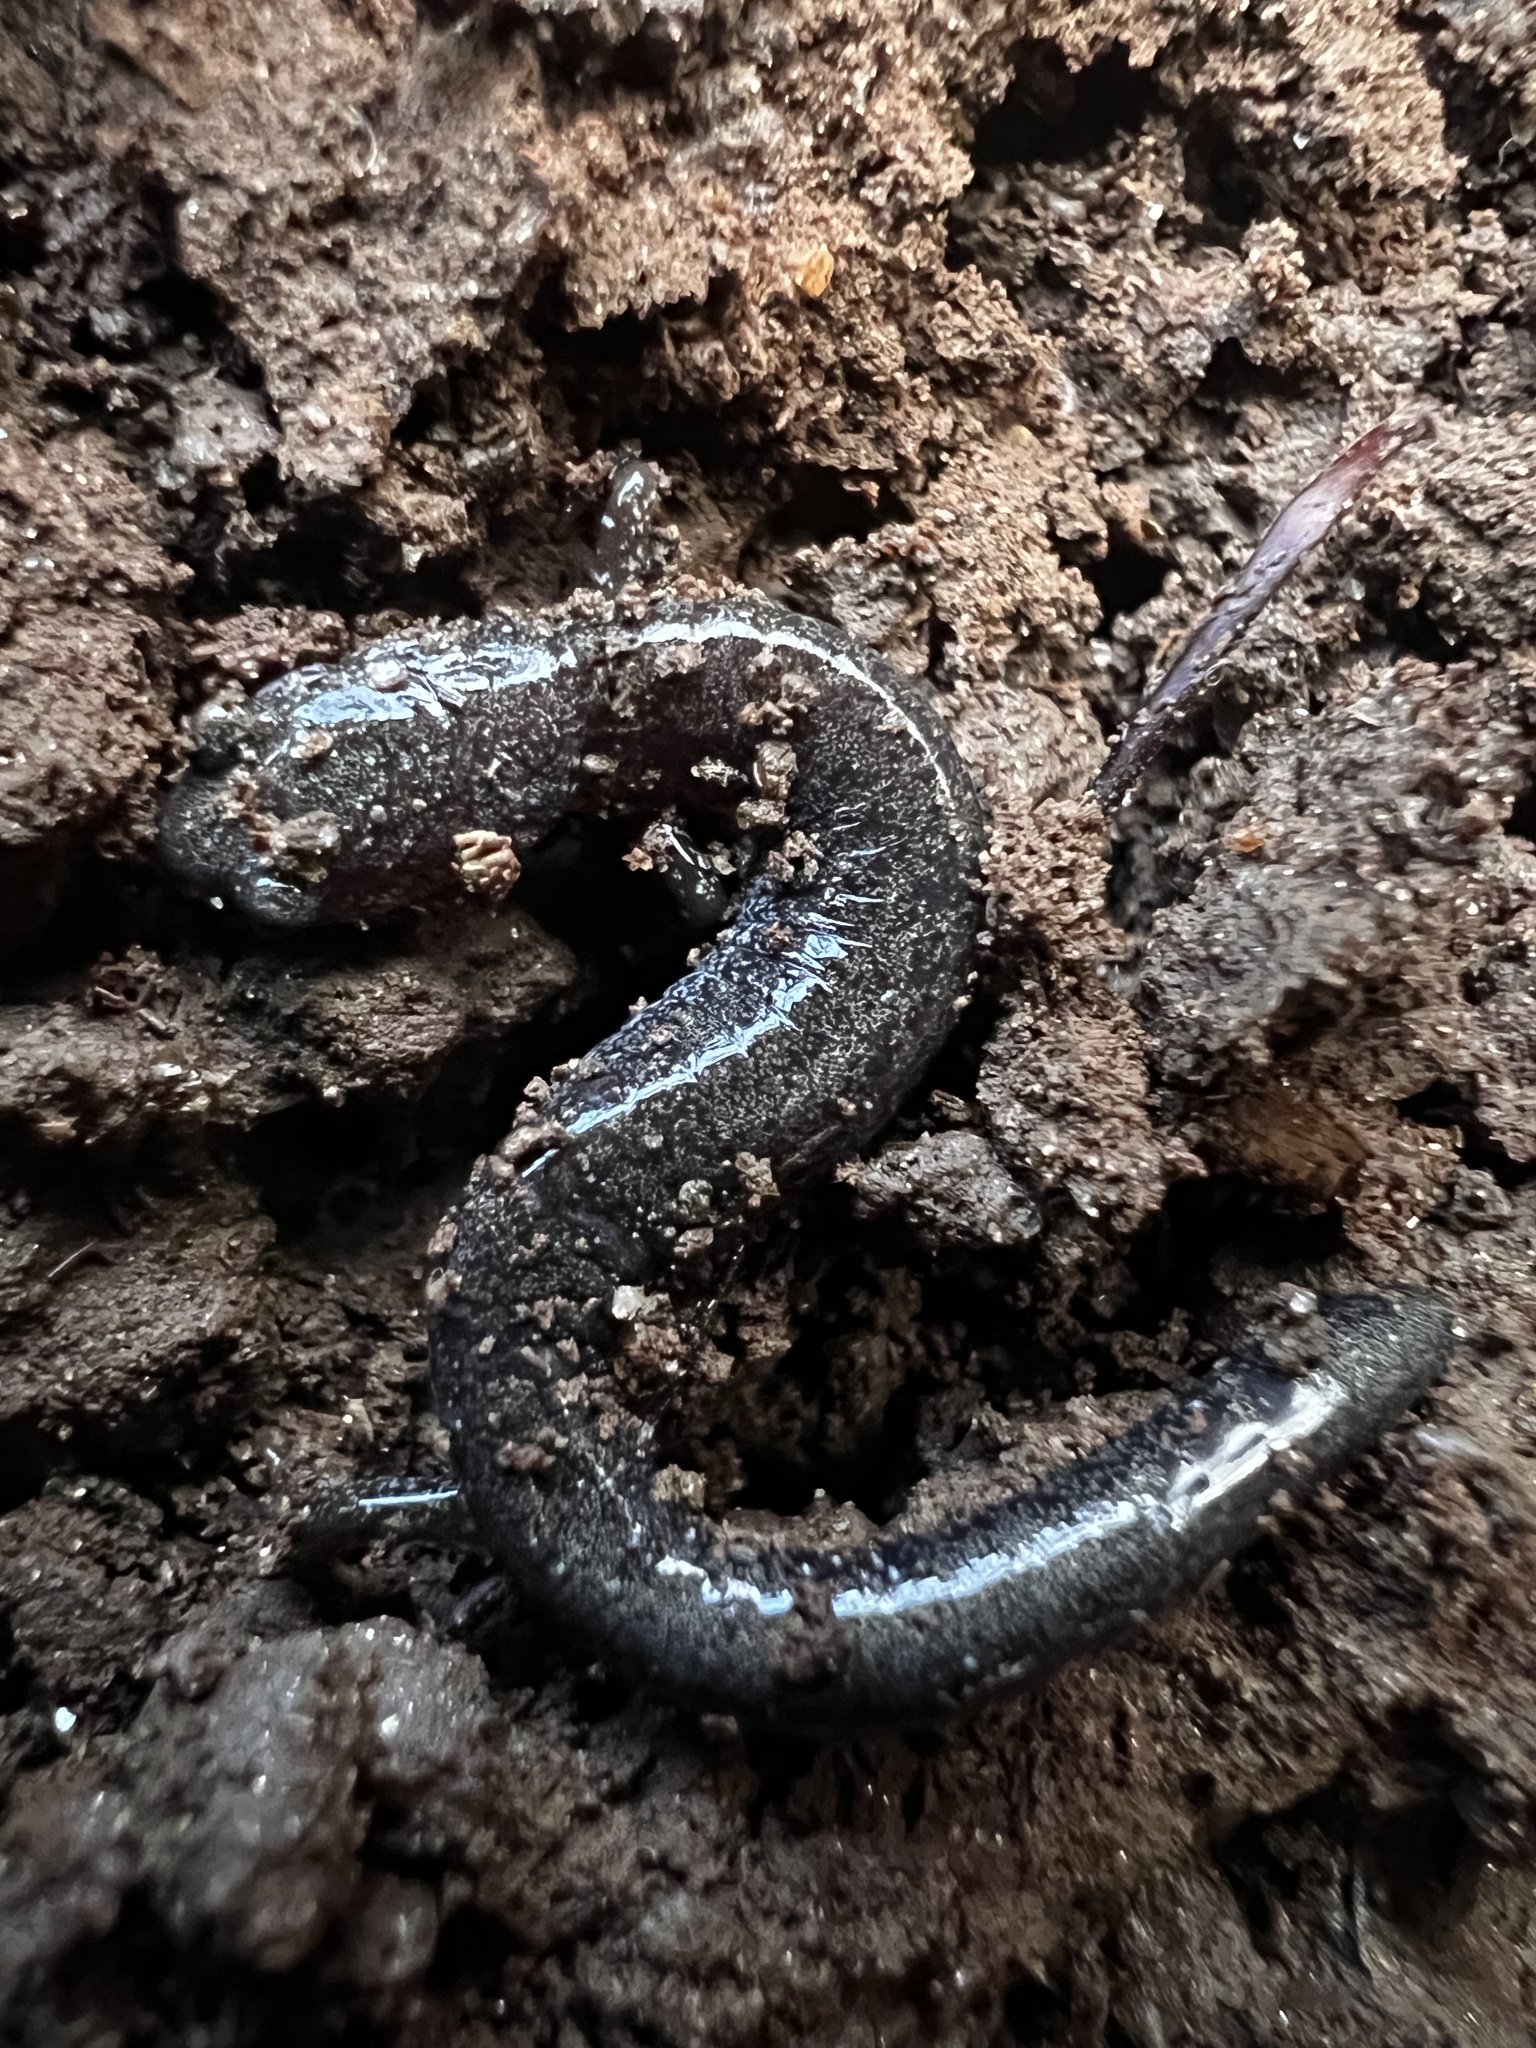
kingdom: Animalia
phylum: Chordata
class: Amphibia
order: Caudata
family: Plethodontidae
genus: Plethodon
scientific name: Plethodon cinereus
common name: Redback salamander
